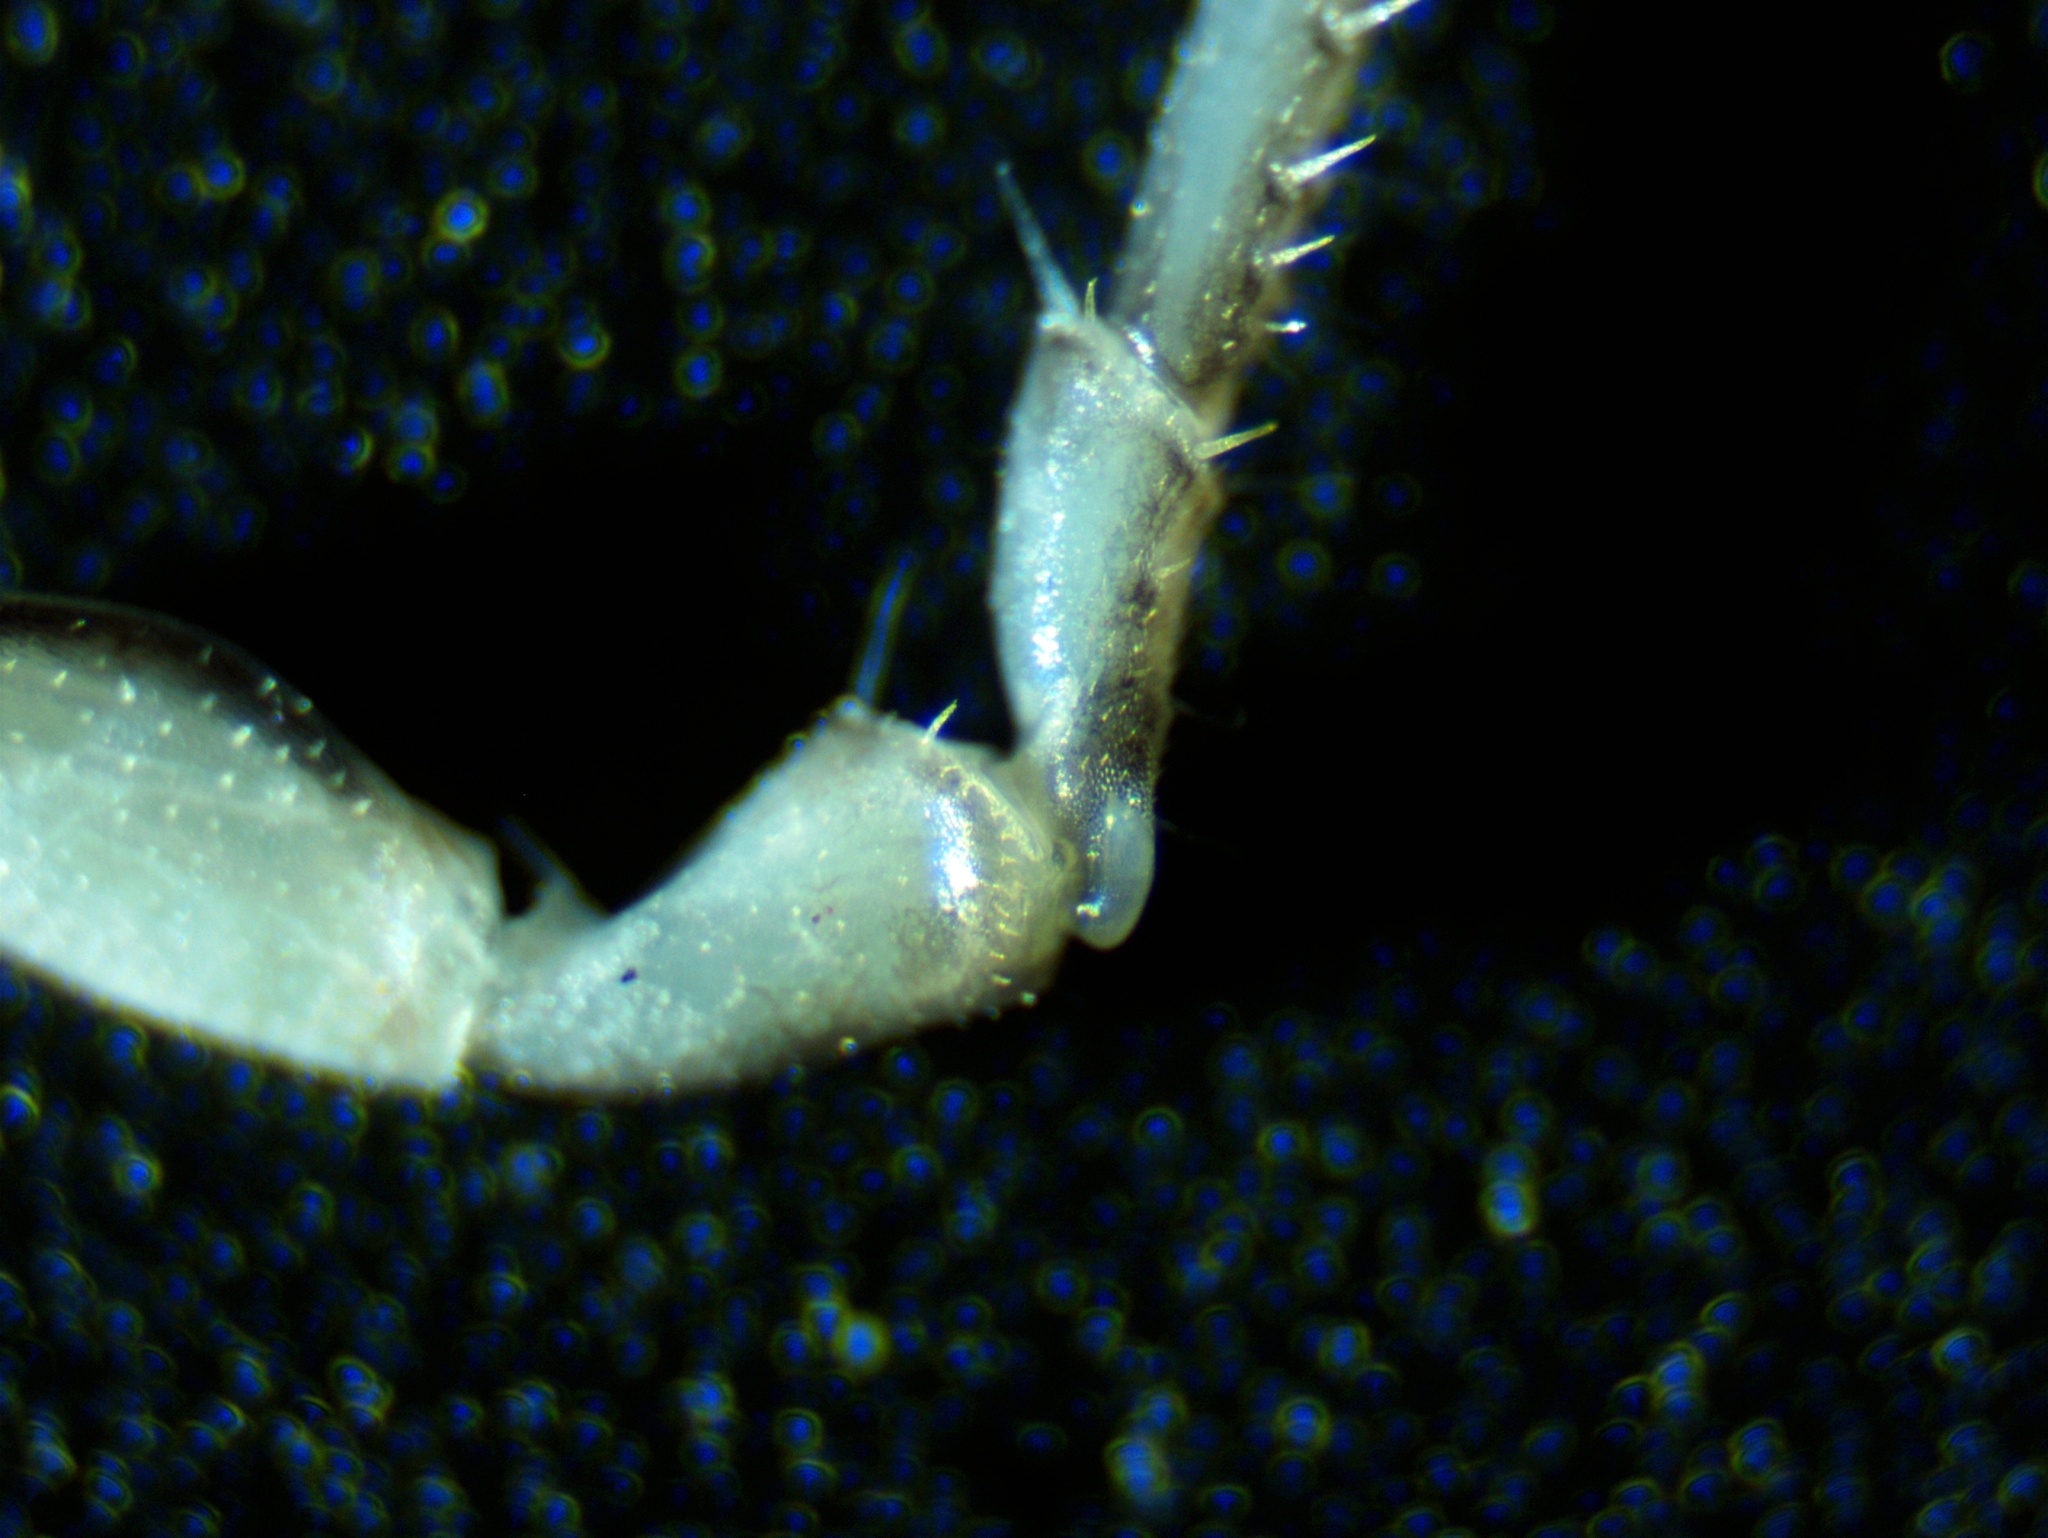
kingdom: Animalia
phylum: Arthropoda
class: Malacostraca
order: Isopoda
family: Philosciidae
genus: Philoscia
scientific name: Philoscia muscorum
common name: Common striped woodlouse
